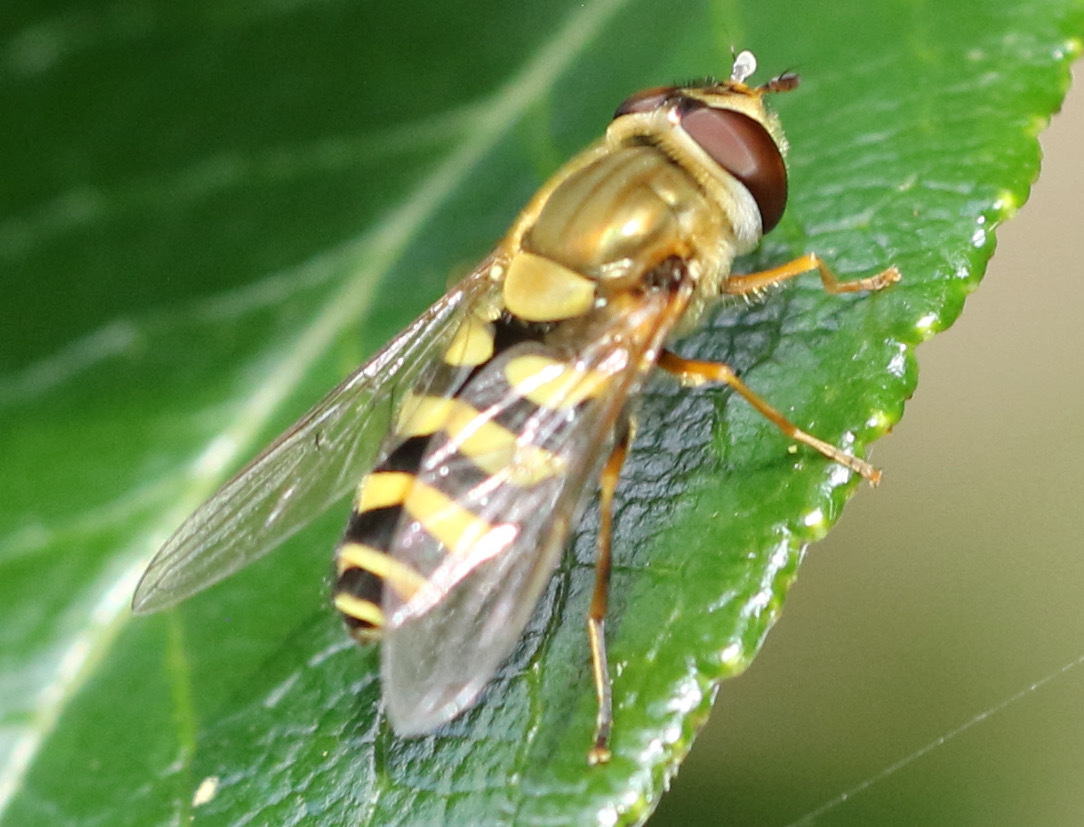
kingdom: Animalia
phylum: Arthropoda
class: Insecta
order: Diptera
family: Syrphidae
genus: Syrphus
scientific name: Syrphus
